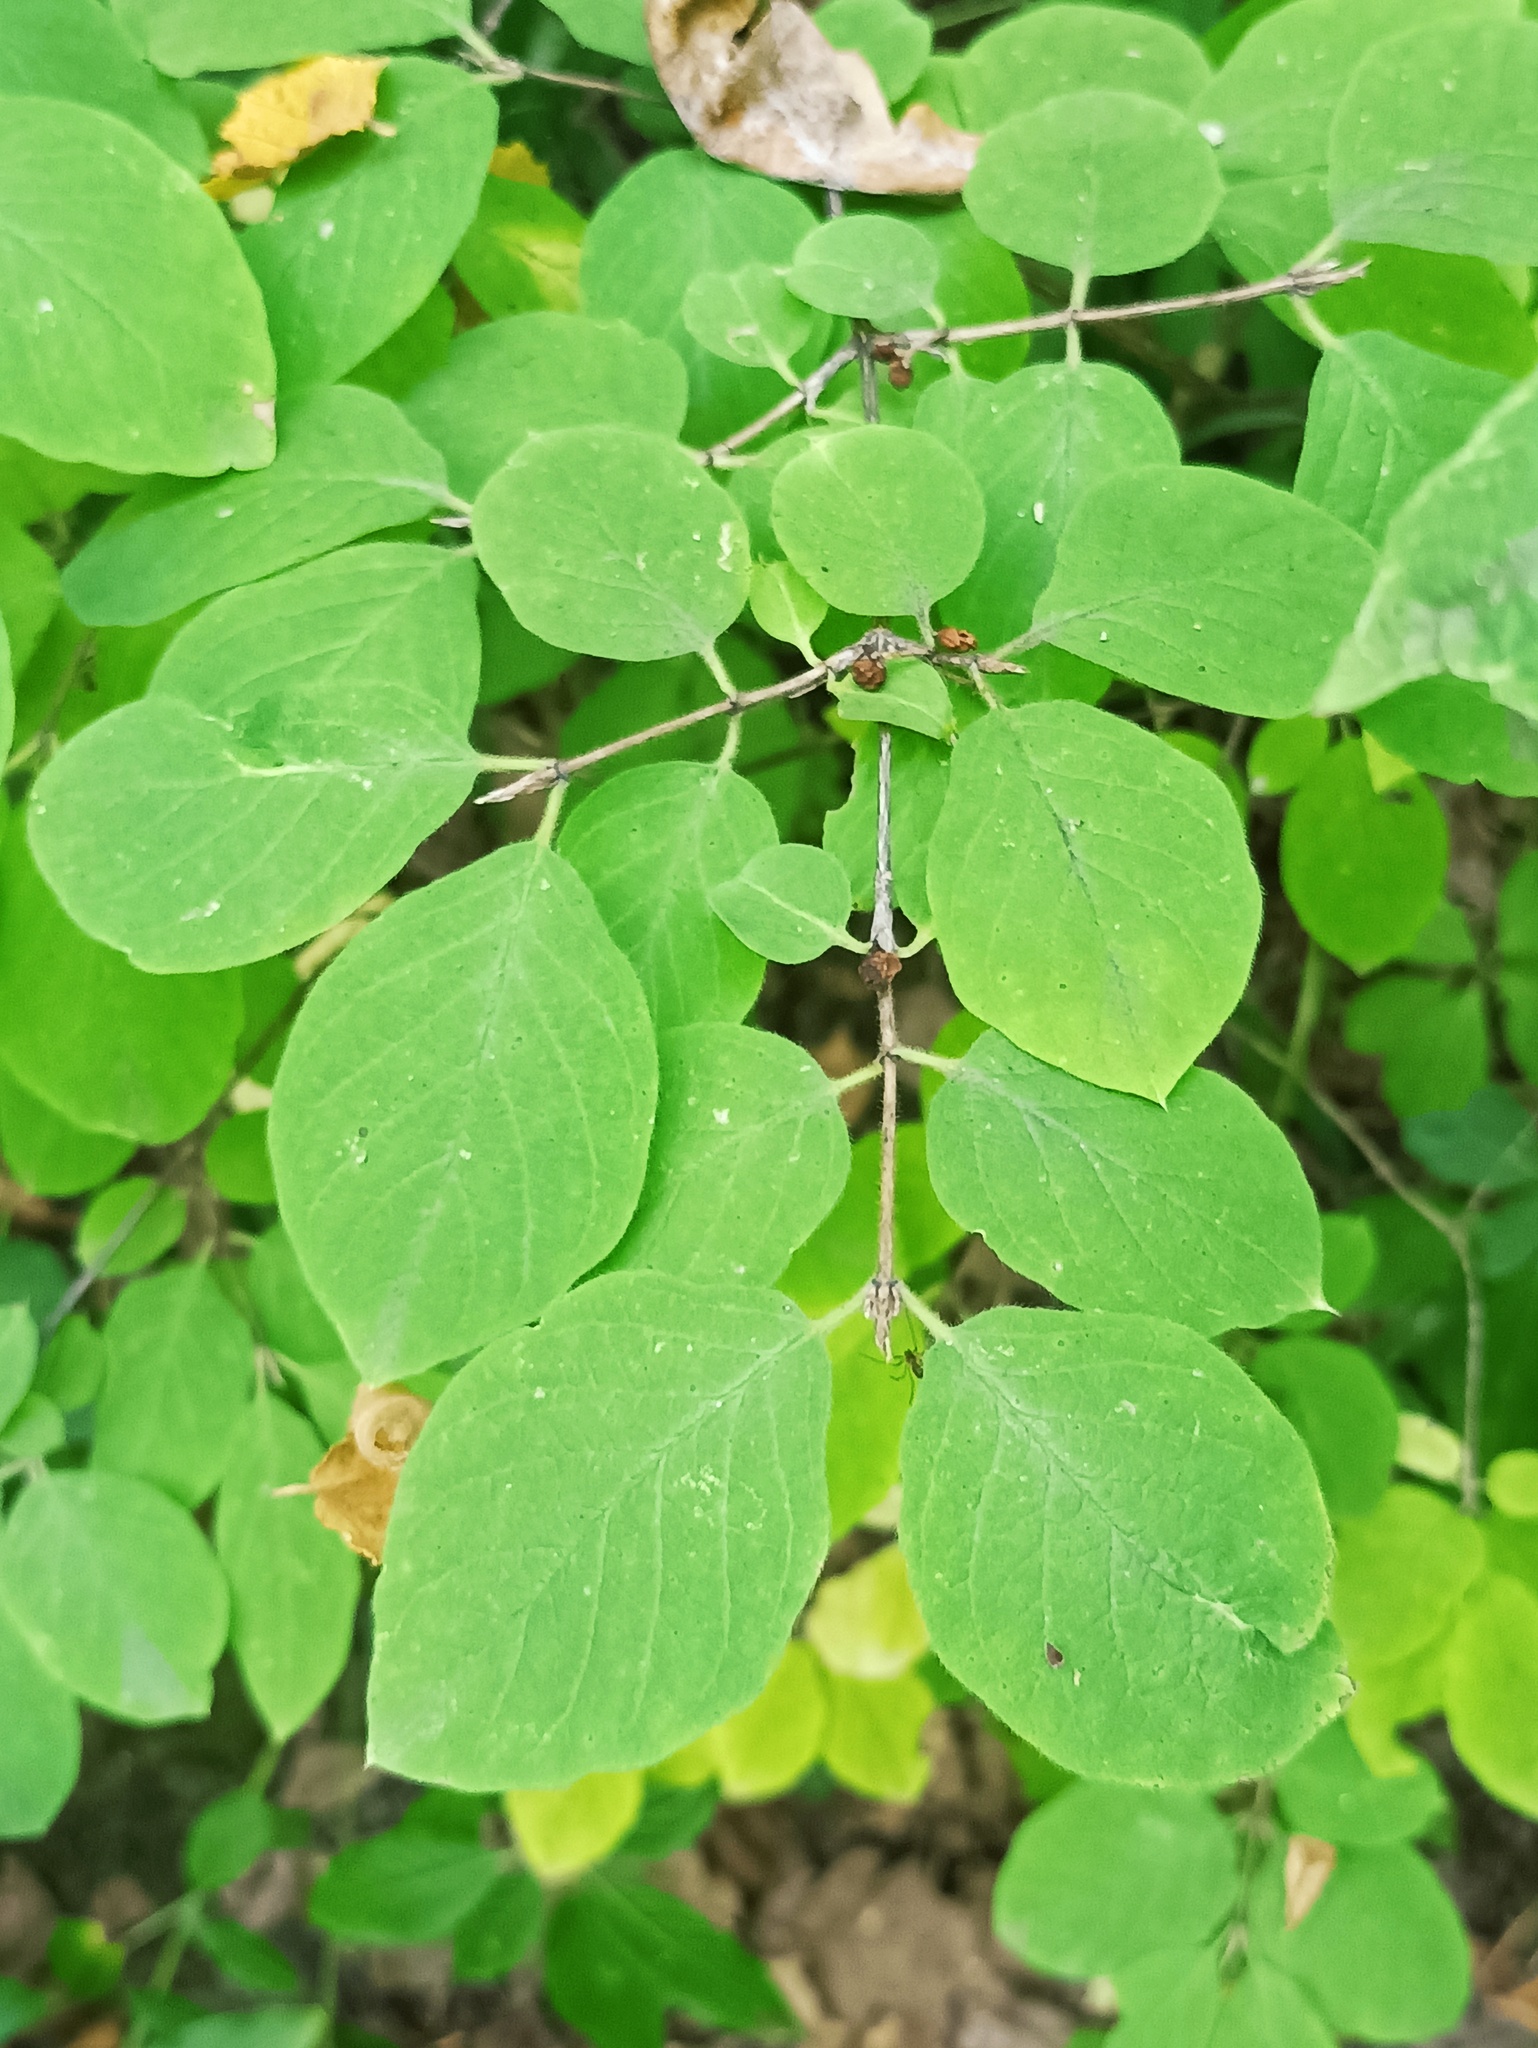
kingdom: Plantae
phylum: Tracheophyta
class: Magnoliopsida
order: Dipsacales
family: Caprifoliaceae
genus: Lonicera
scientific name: Lonicera xylosteum
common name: Fly honeysuckle
